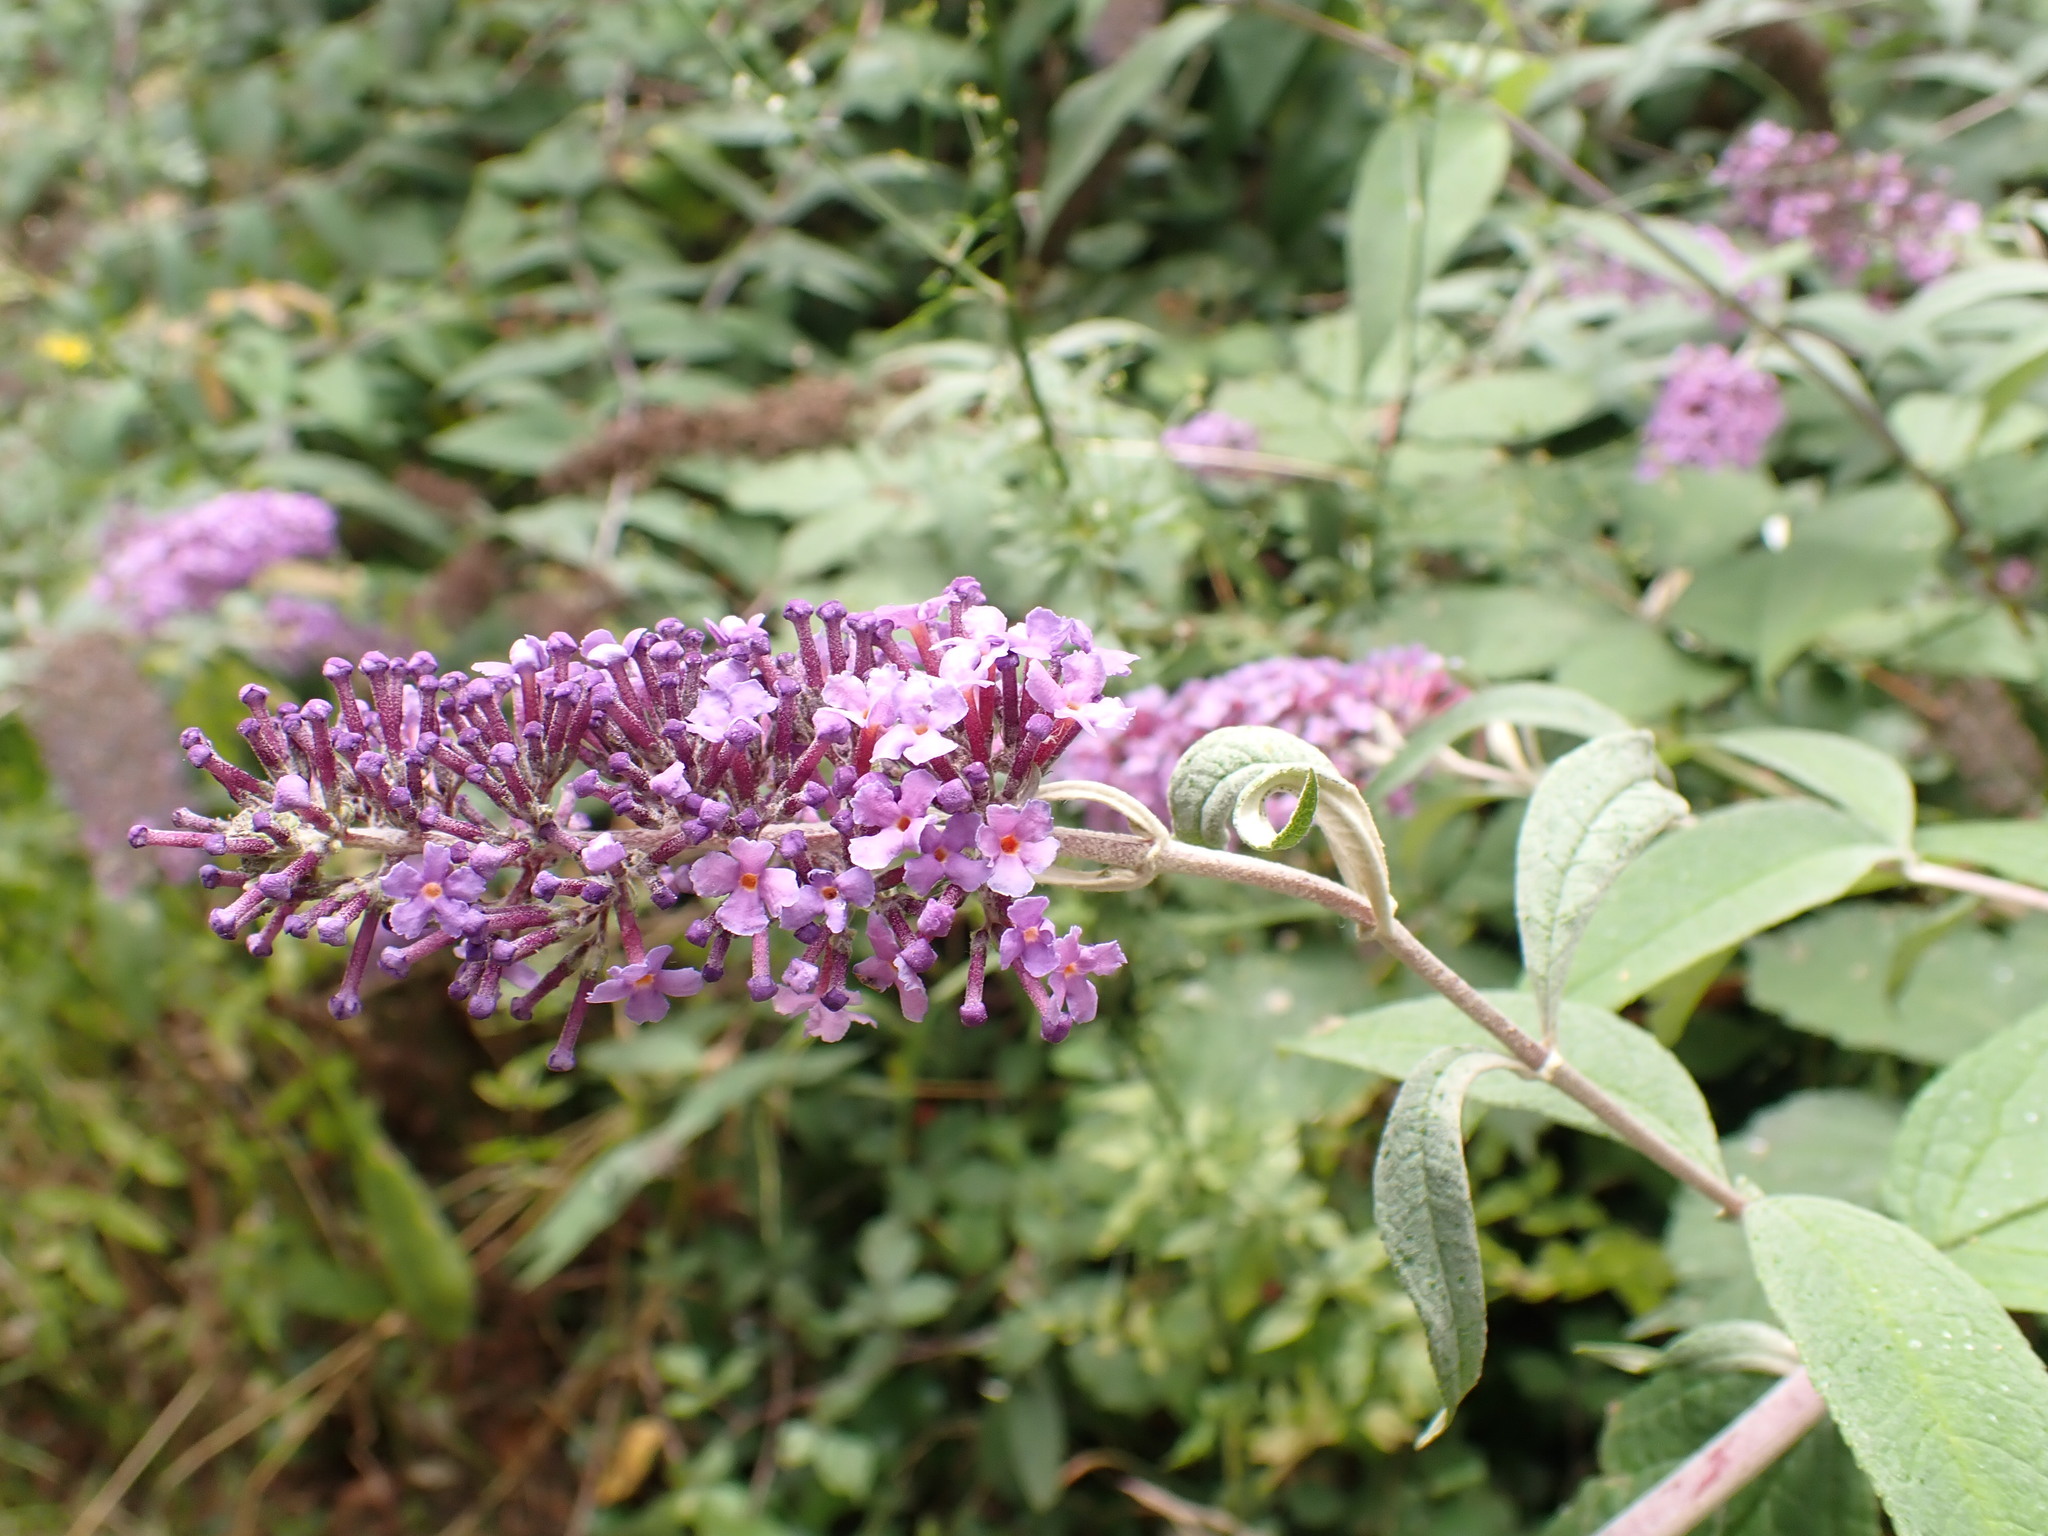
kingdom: Plantae
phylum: Tracheophyta
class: Magnoliopsida
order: Lamiales
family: Scrophulariaceae
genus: Buddleja
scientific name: Buddleja davidii
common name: Butterfly-bush
